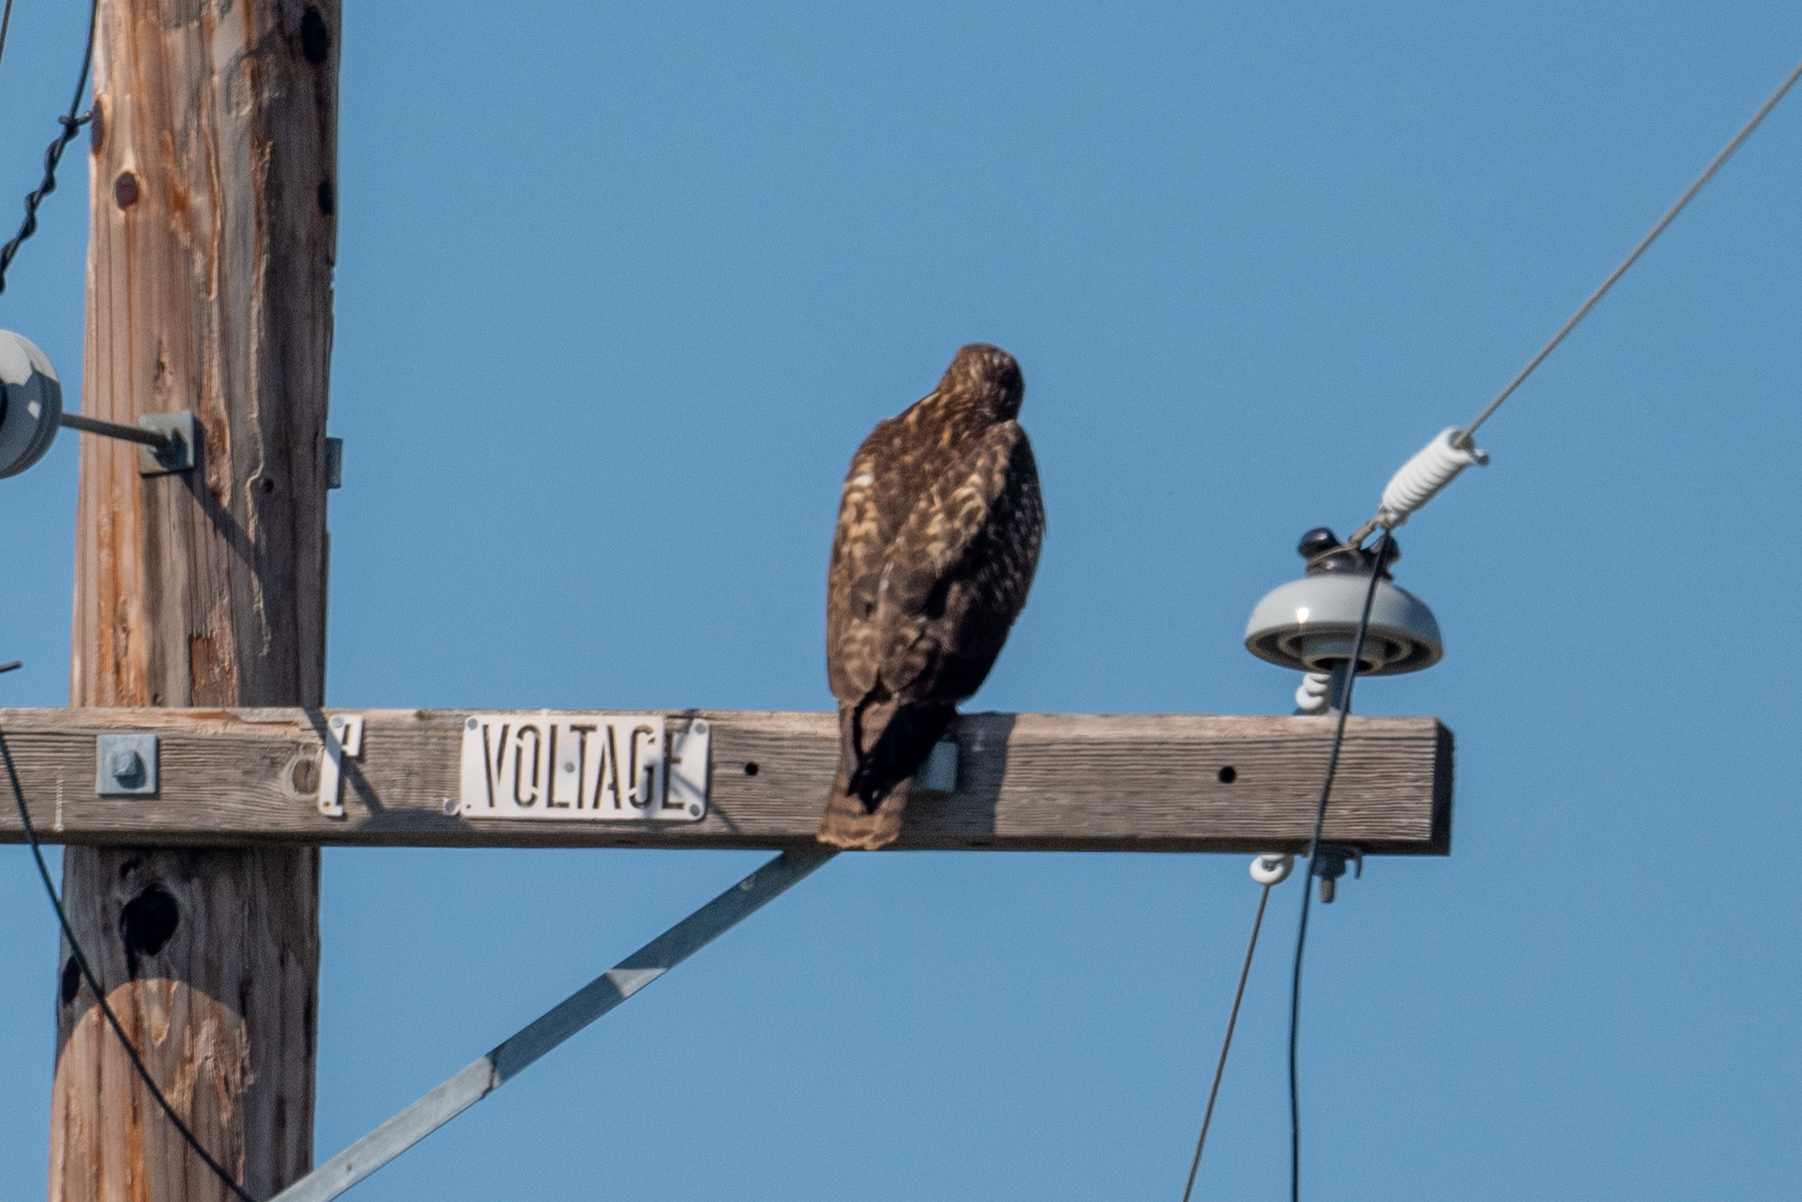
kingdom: Animalia
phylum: Chordata
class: Aves
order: Accipitriformes
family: Accipitridae
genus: Buteo
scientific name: Buteo jamaicensis
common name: Red-tailed hawk
